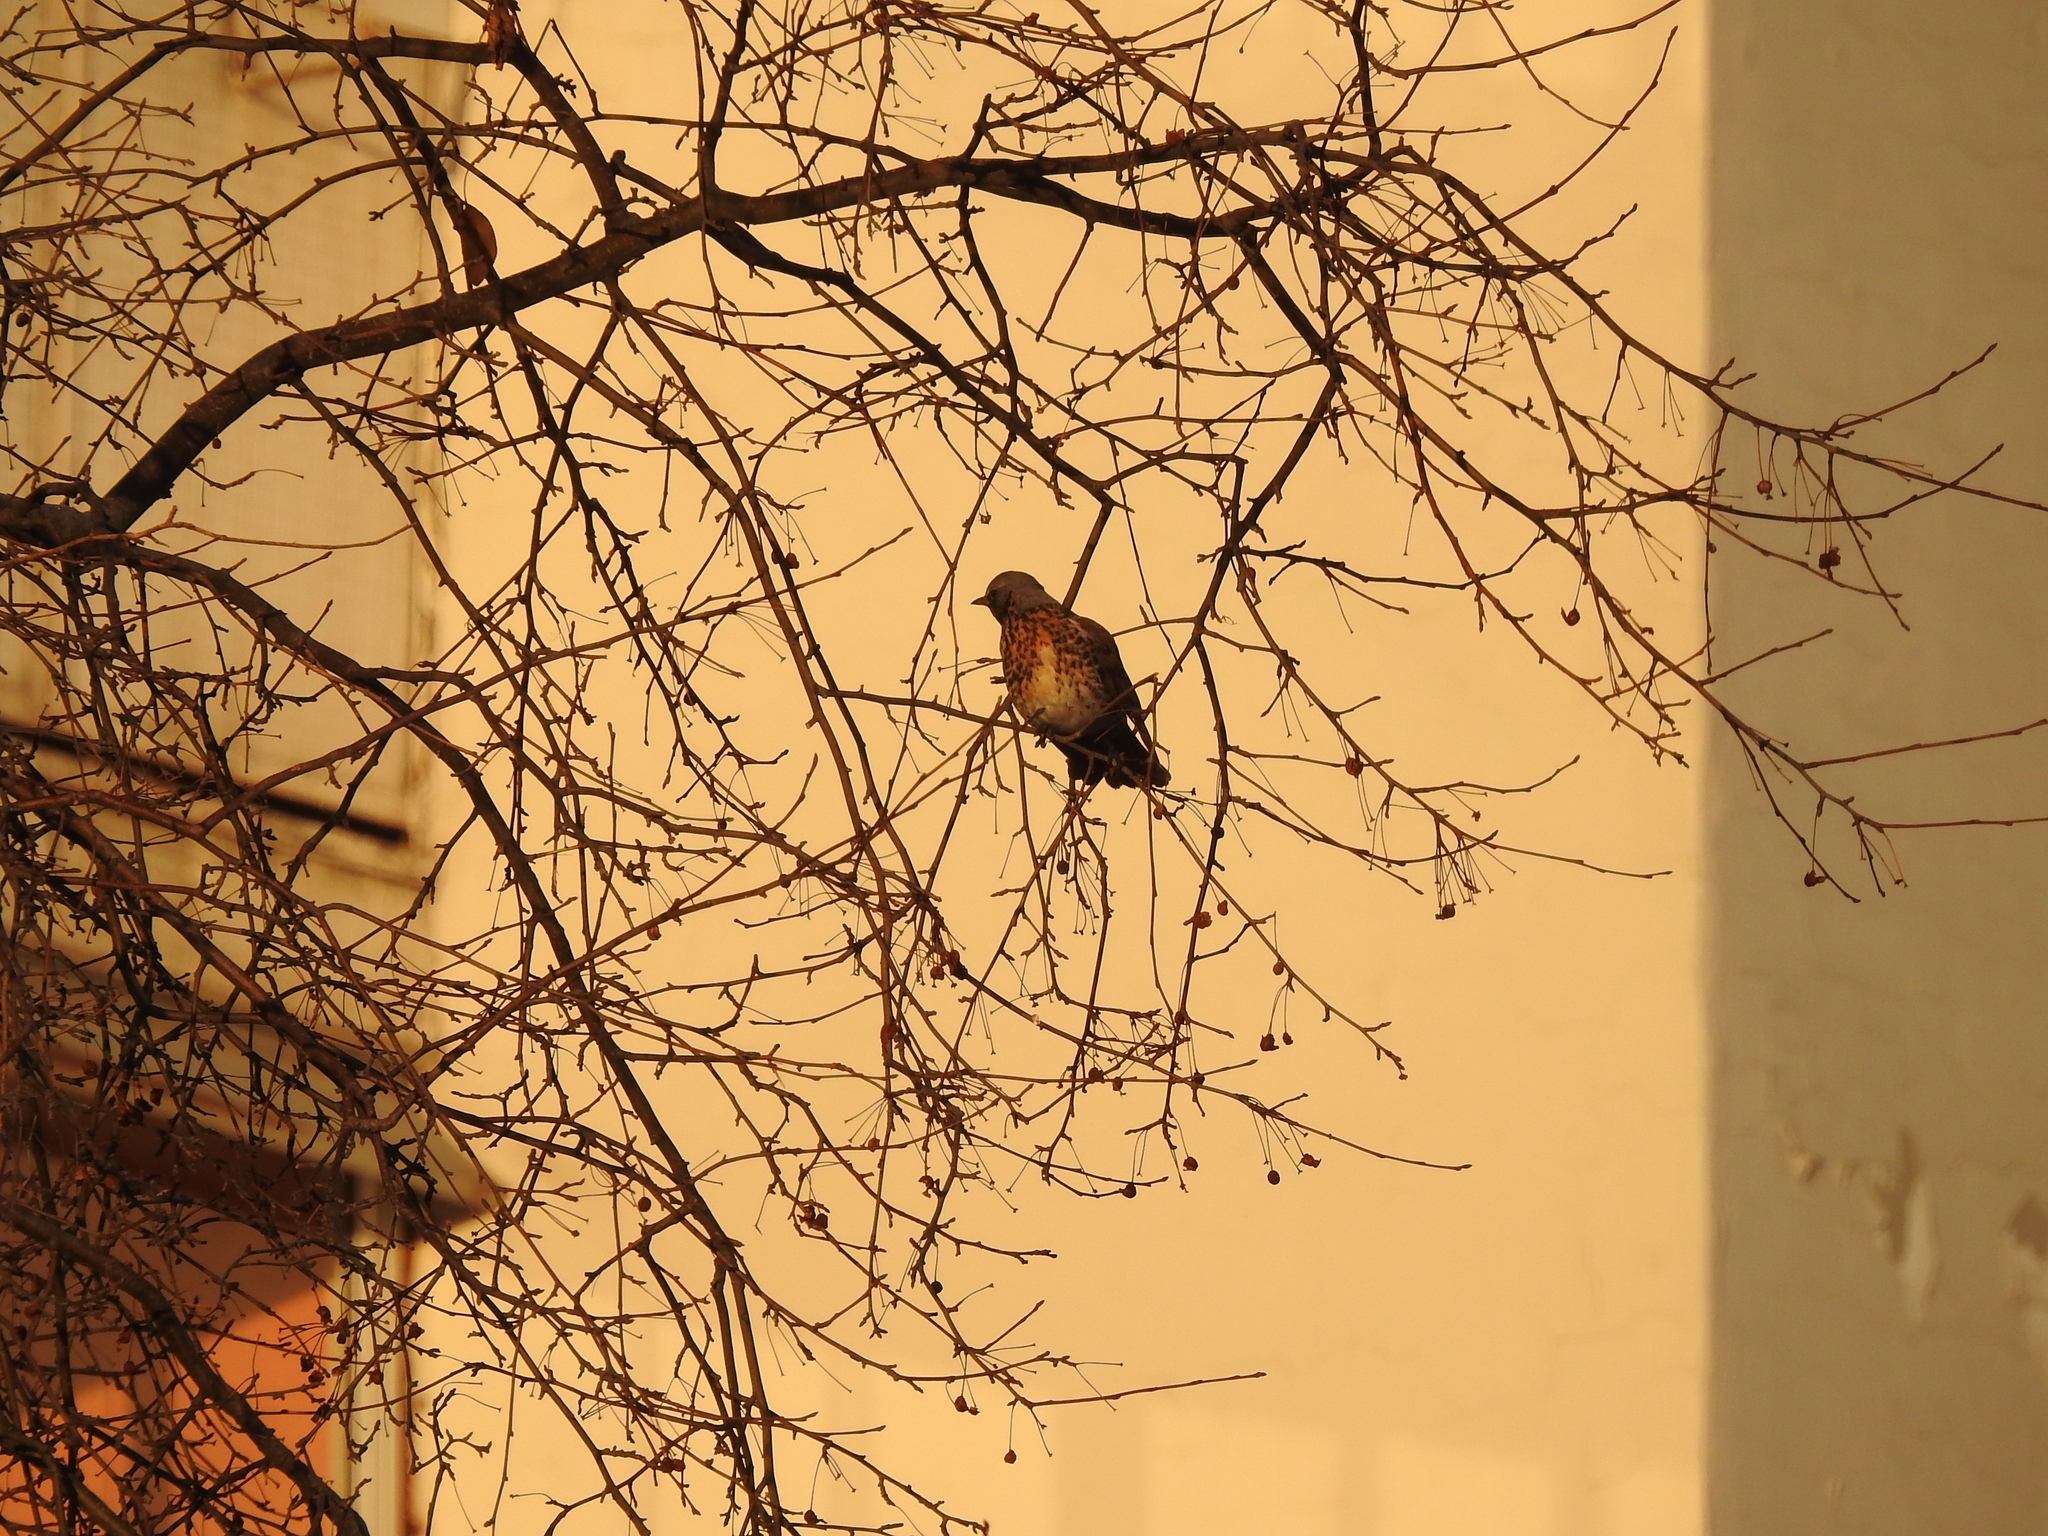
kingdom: Animalia
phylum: Chordata
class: Aves
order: Passeriformes
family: Turdidae
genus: Turdus
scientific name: Turdus pilaris
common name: Fieldfare
